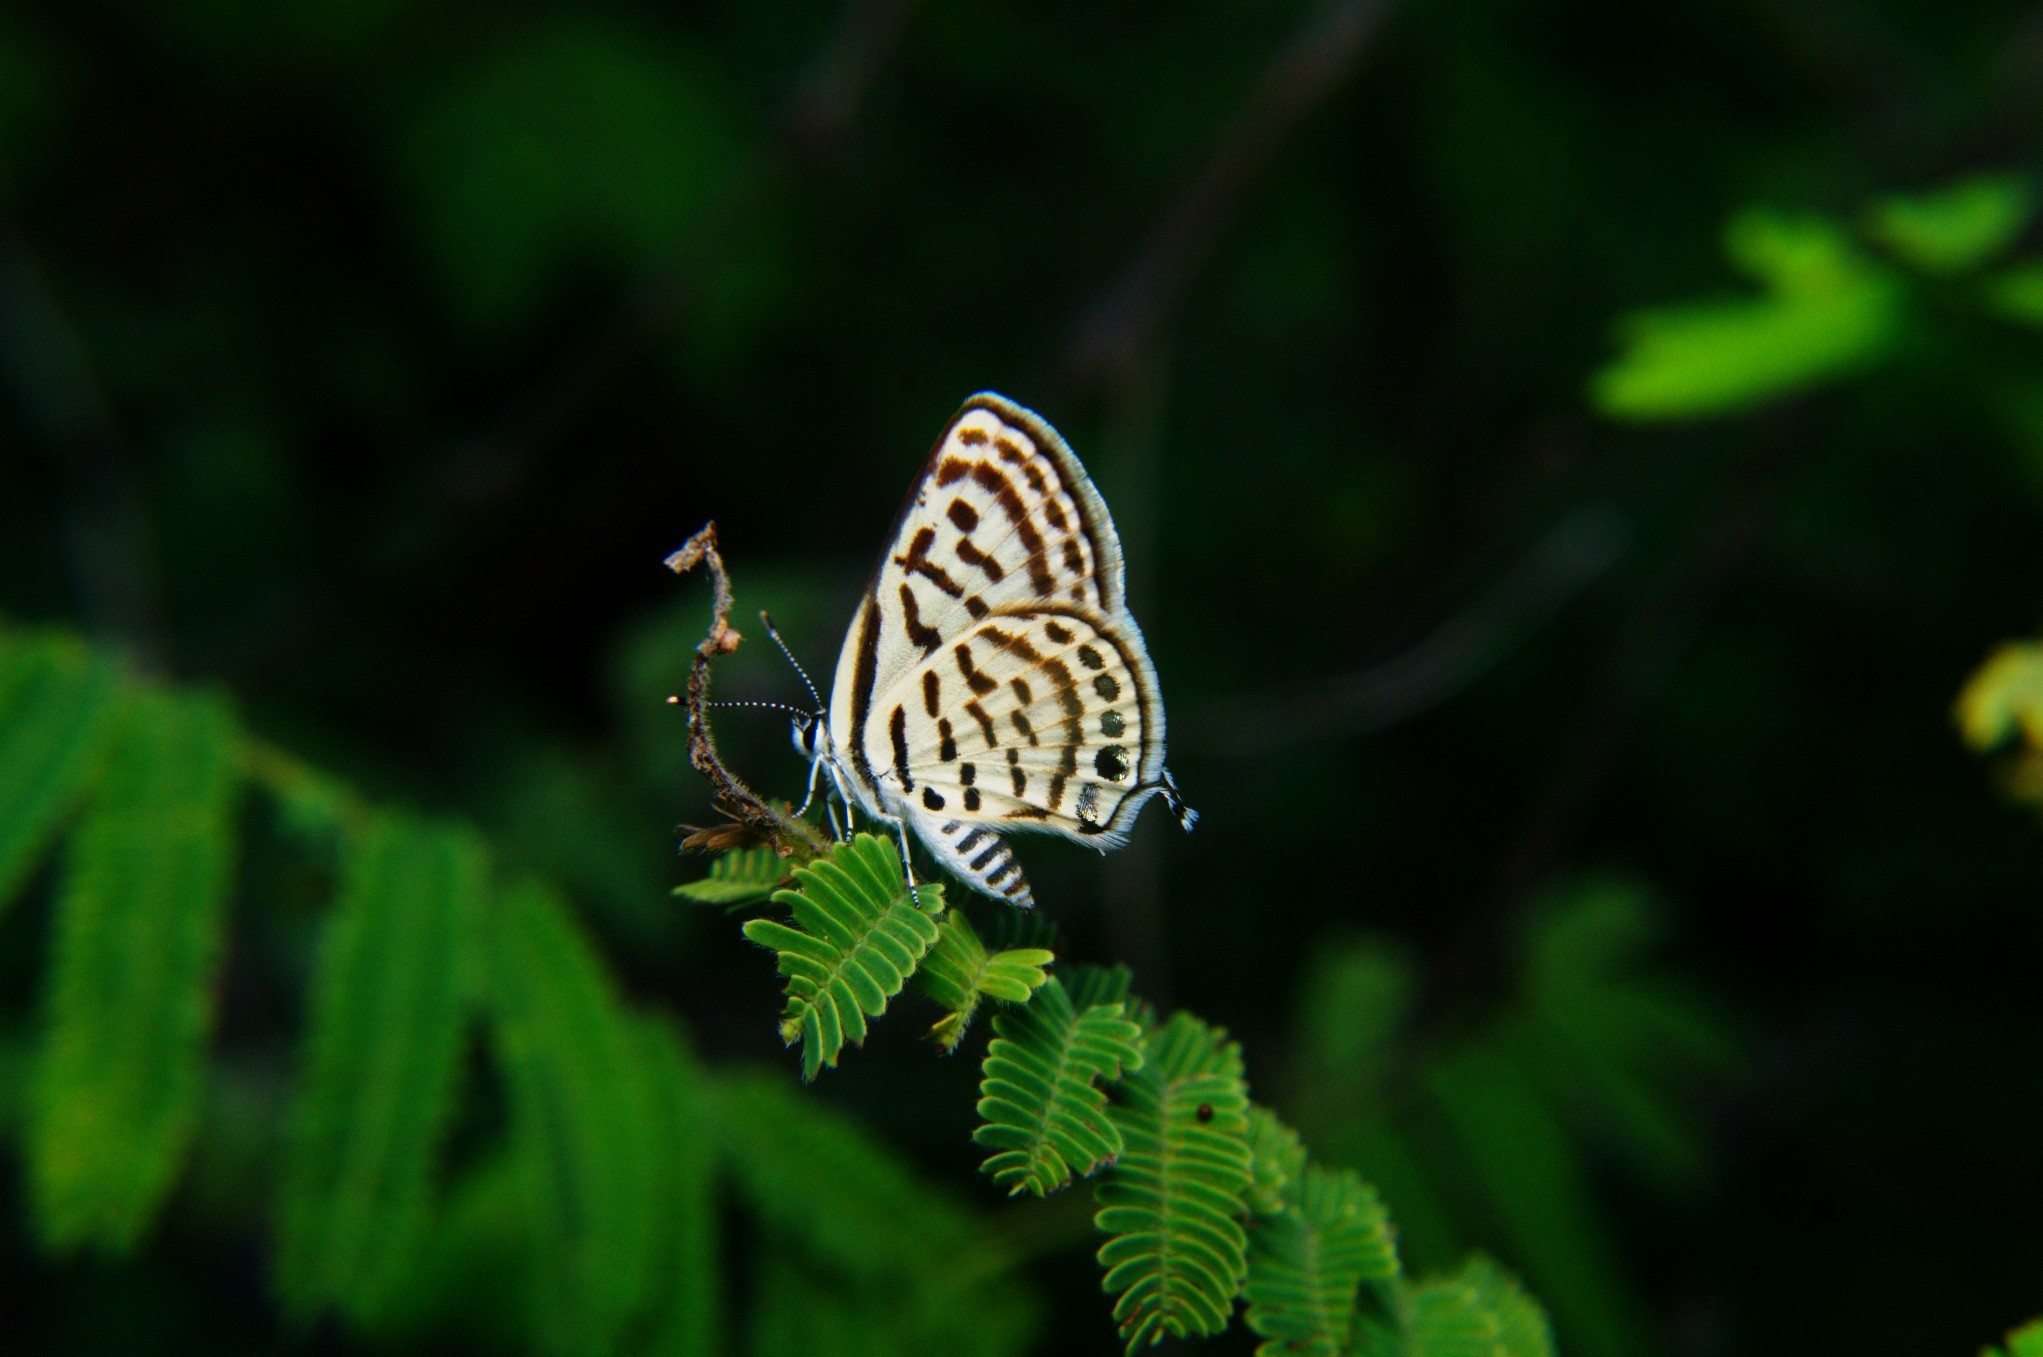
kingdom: Animalia
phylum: Arthropoda
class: Insecta
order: Lepidoptera
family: Lycaenidae
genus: Tarucus
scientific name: Tarucus nara
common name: Striped pierrot
